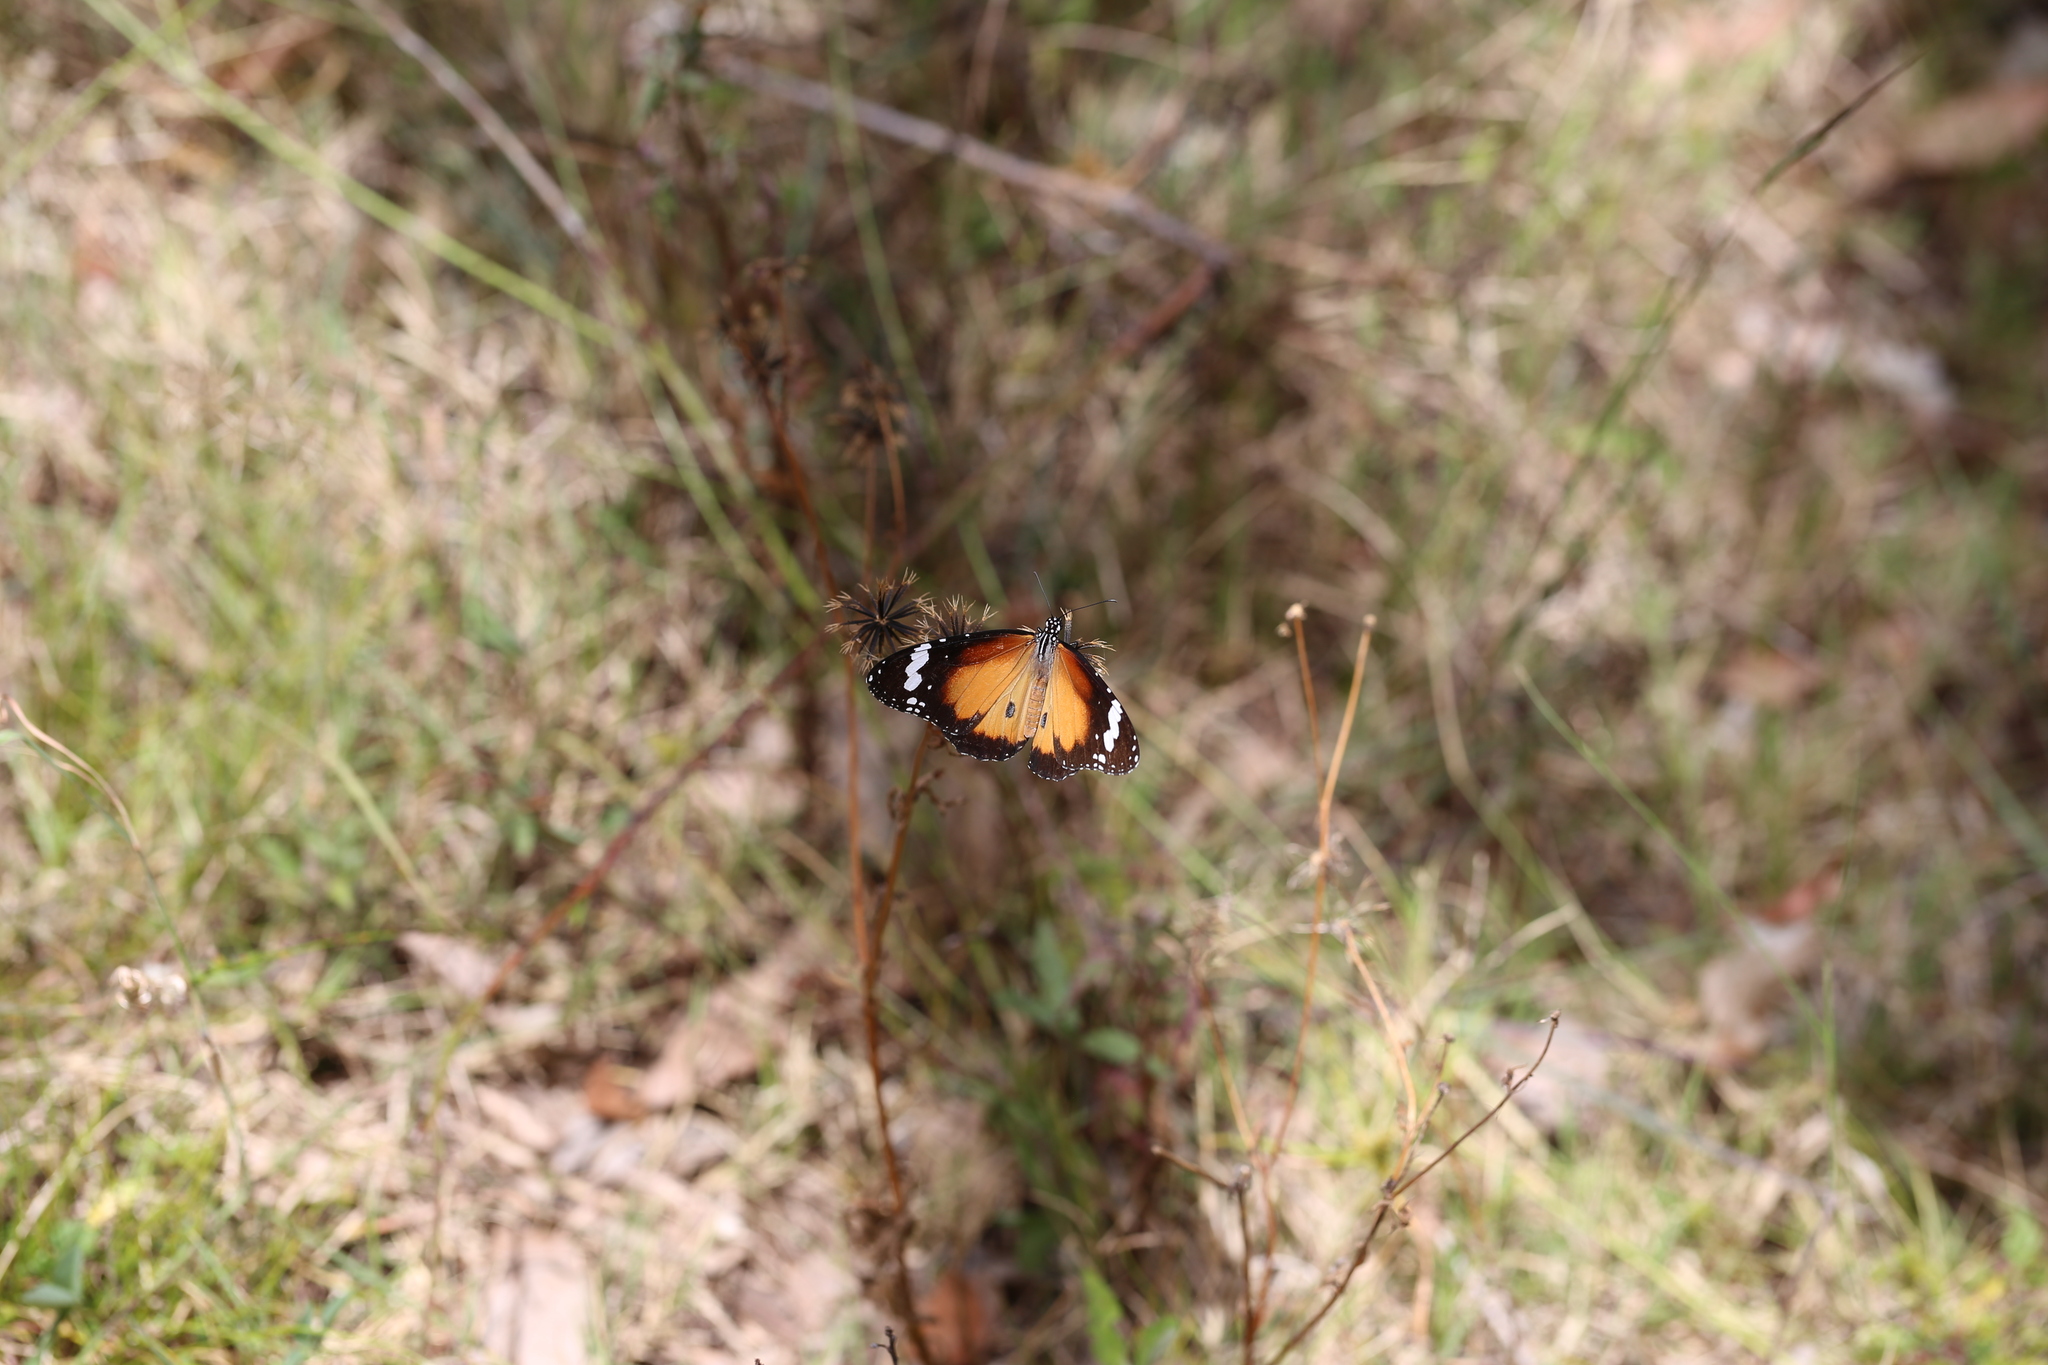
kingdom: Animalia
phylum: Arthropoda
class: Insecta
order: Lepidoptera
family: Nymphalidae
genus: Danaus
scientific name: Danaus chrysippus
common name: Plain tiger
